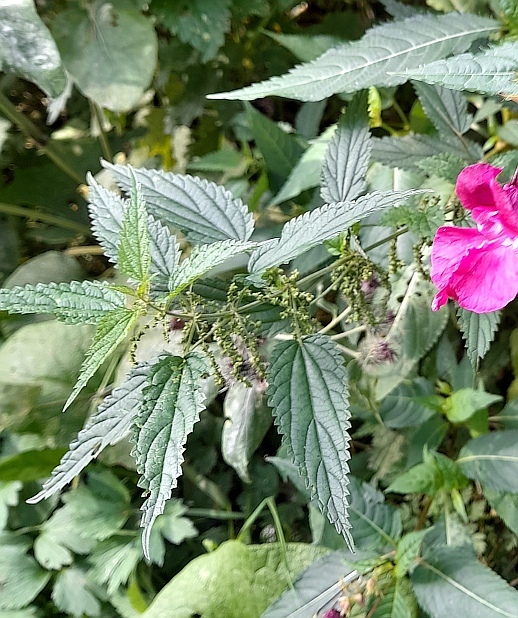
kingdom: Plantae
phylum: Tracheophyta
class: Magnoliopsida
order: Rosales
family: Urticaceae
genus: Urtica
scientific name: Urtica dioica
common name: Common nettle
